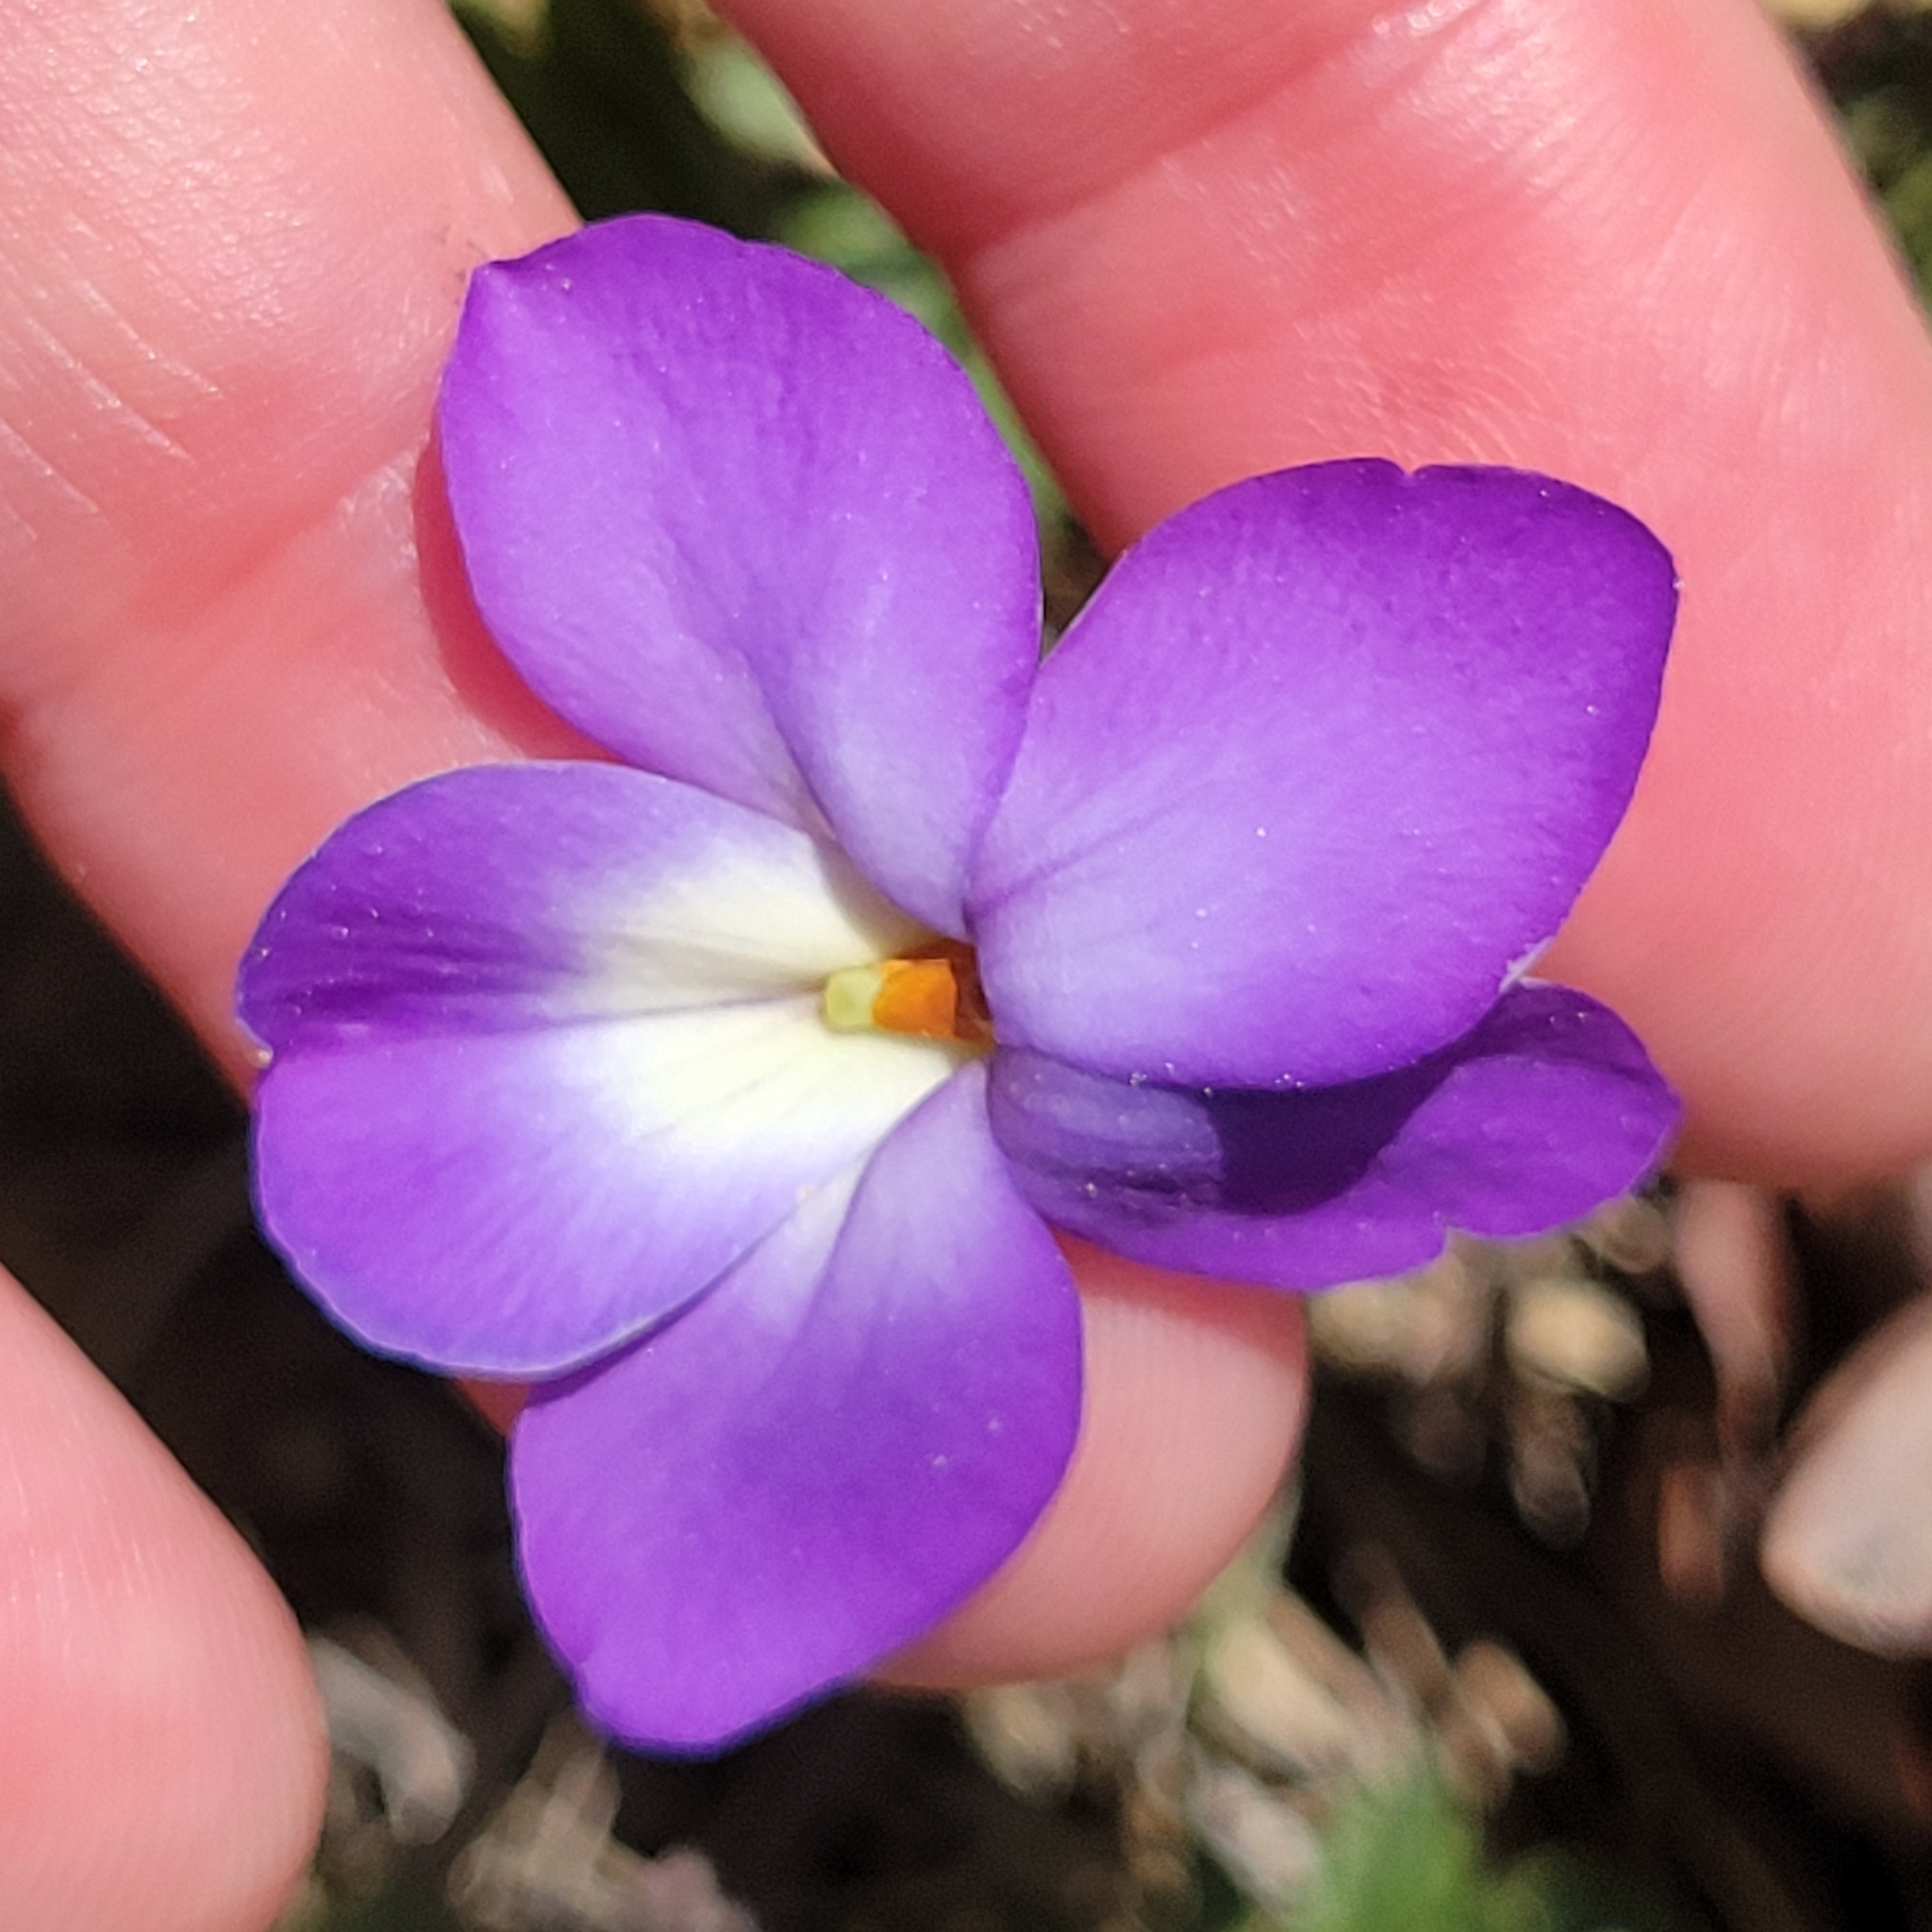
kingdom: Plantae
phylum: Tracheophyta
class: Magnoliopsida
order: Malpighiales
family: Violaceae
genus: Viola
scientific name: Viola pedata
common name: Pansy violet
